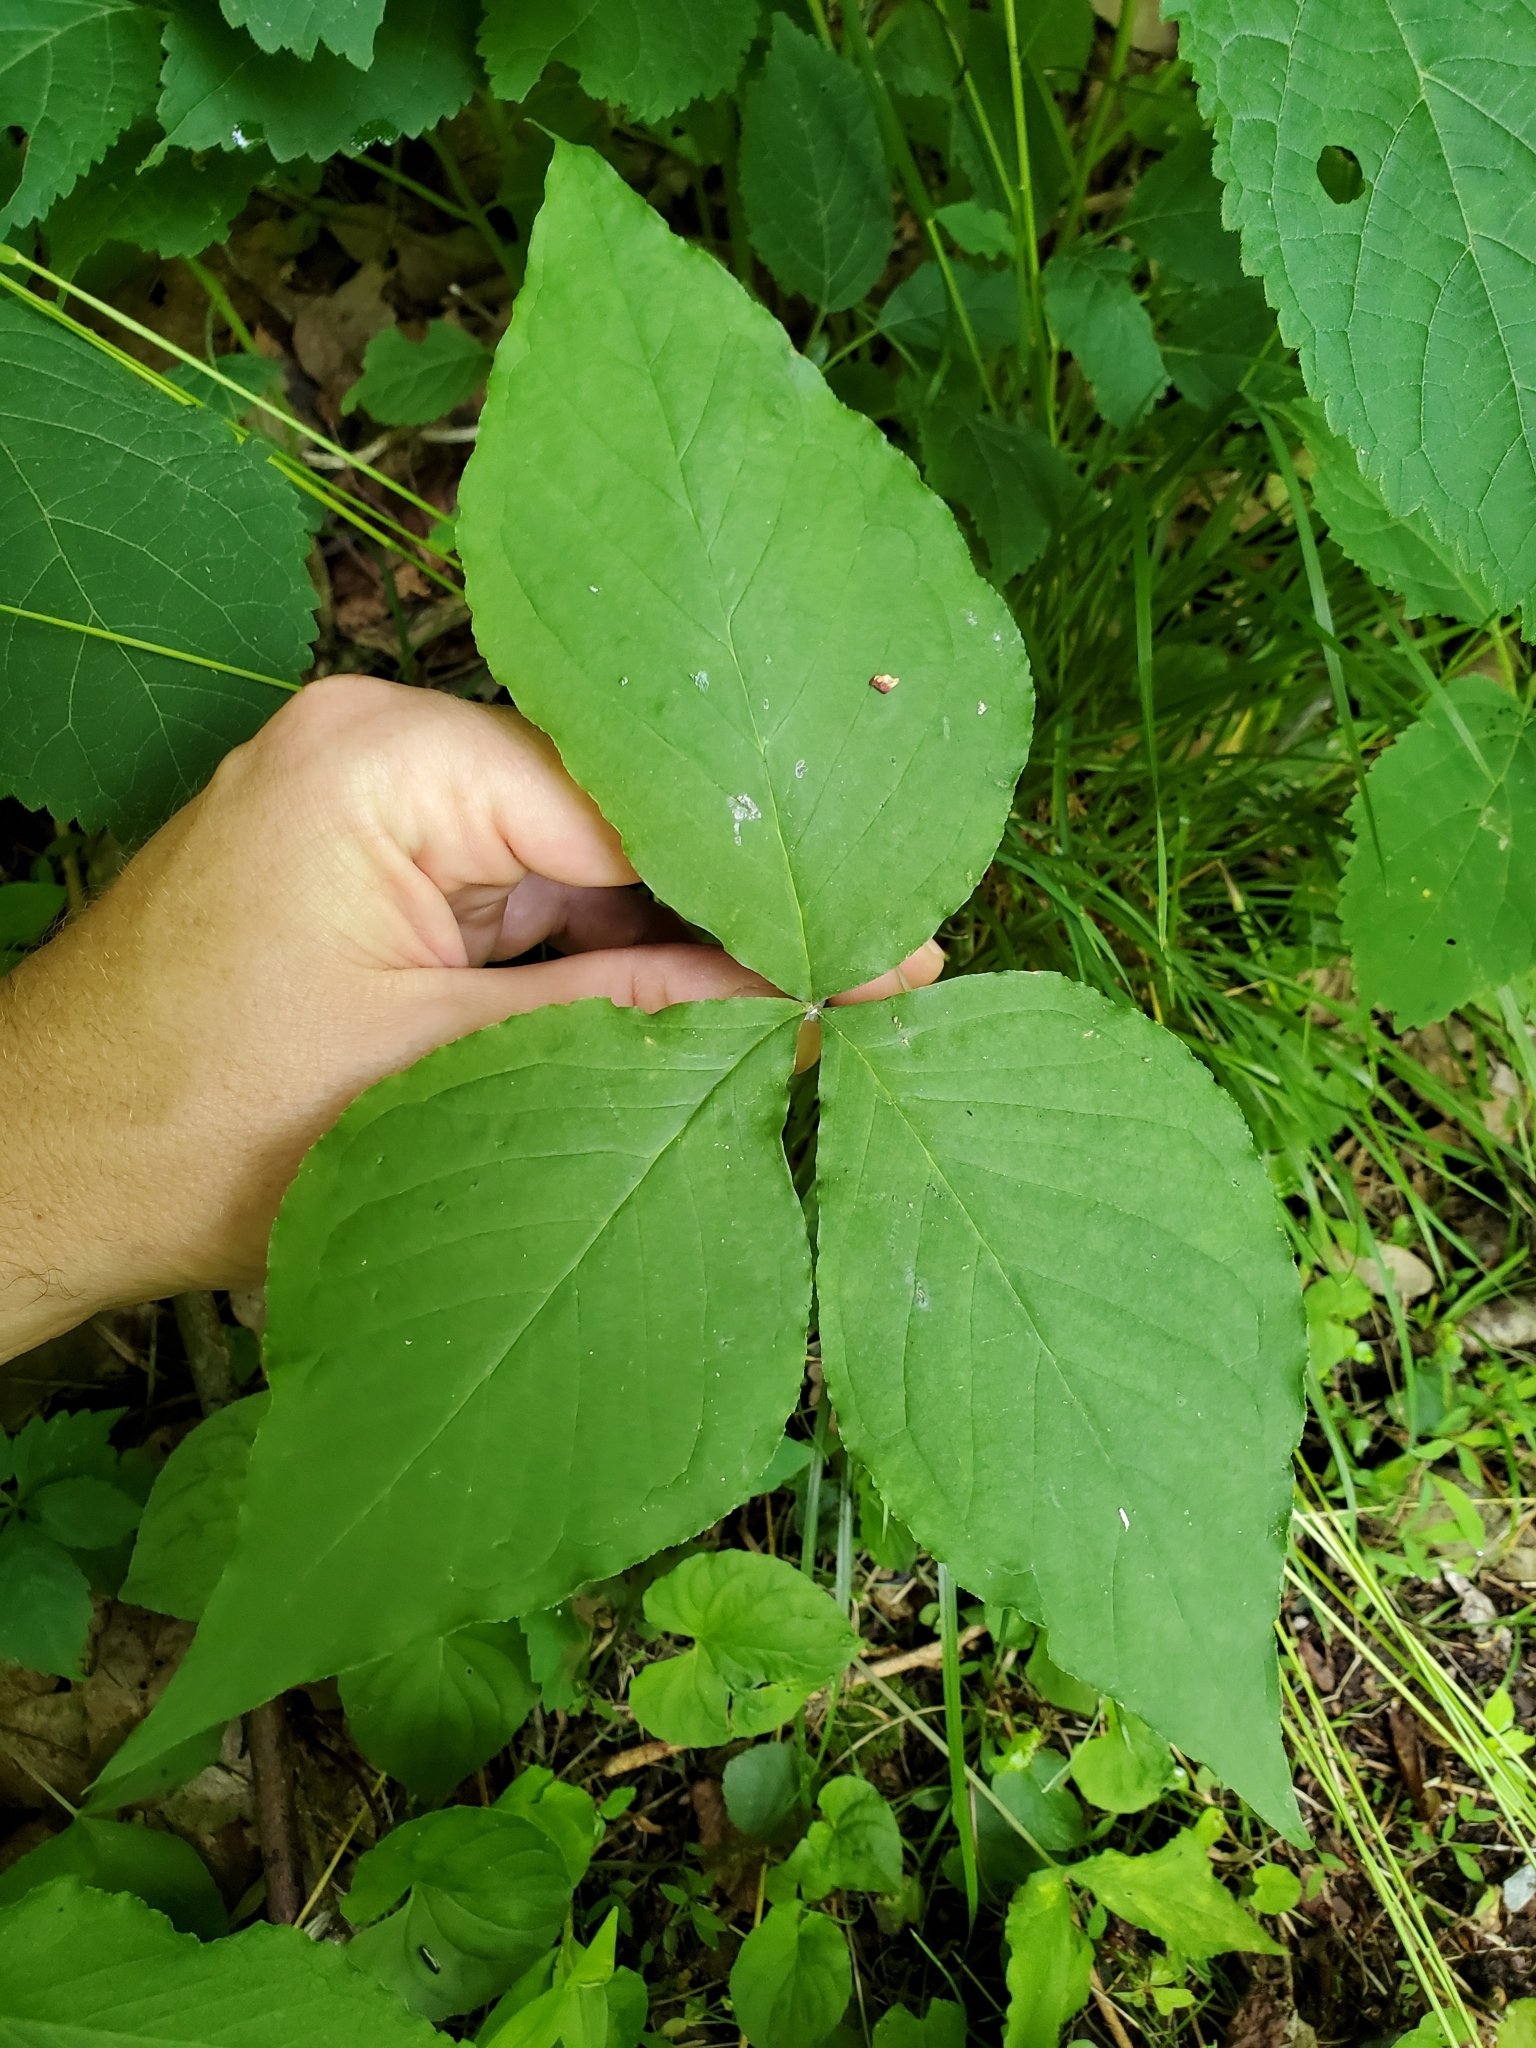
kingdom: Plantae
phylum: Tracheophyta
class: Liliopsida
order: Alismatales
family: Araceae
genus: Arisaema
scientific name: Arisaema triphyllum
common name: Jack-in-the-pulpit
